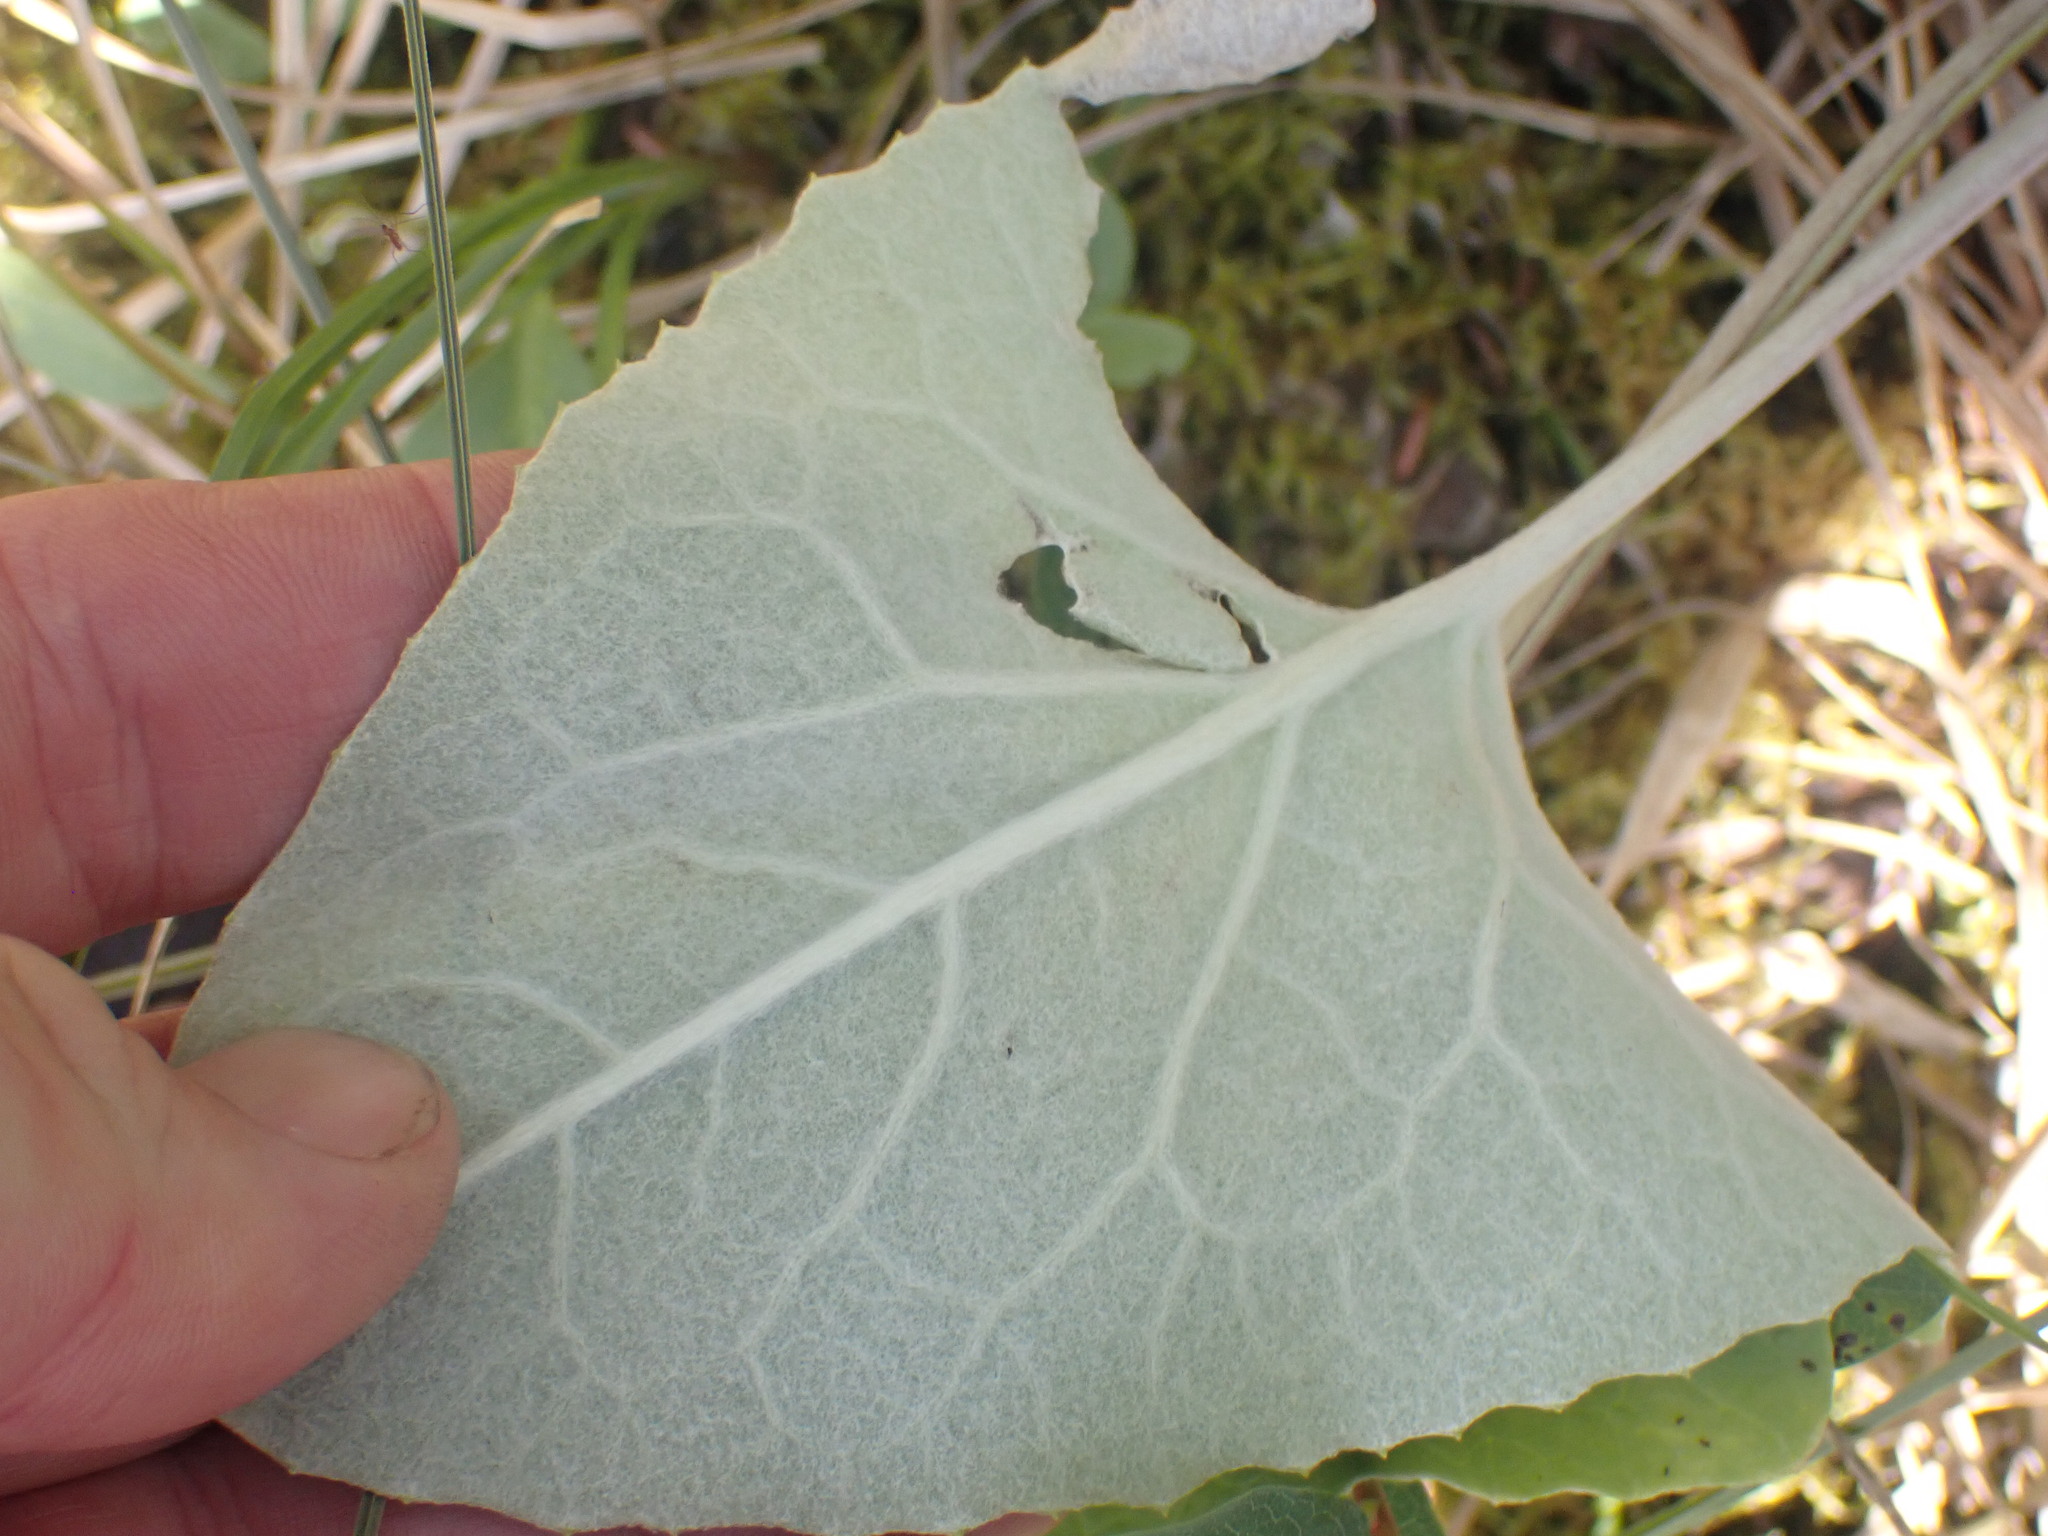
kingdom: Plantae
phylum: Tracheophyta
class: Magnoliopsida
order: Asterales
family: Asteraceae
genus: Petasites
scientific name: Petasites frigidus
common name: Arctic butterbur
